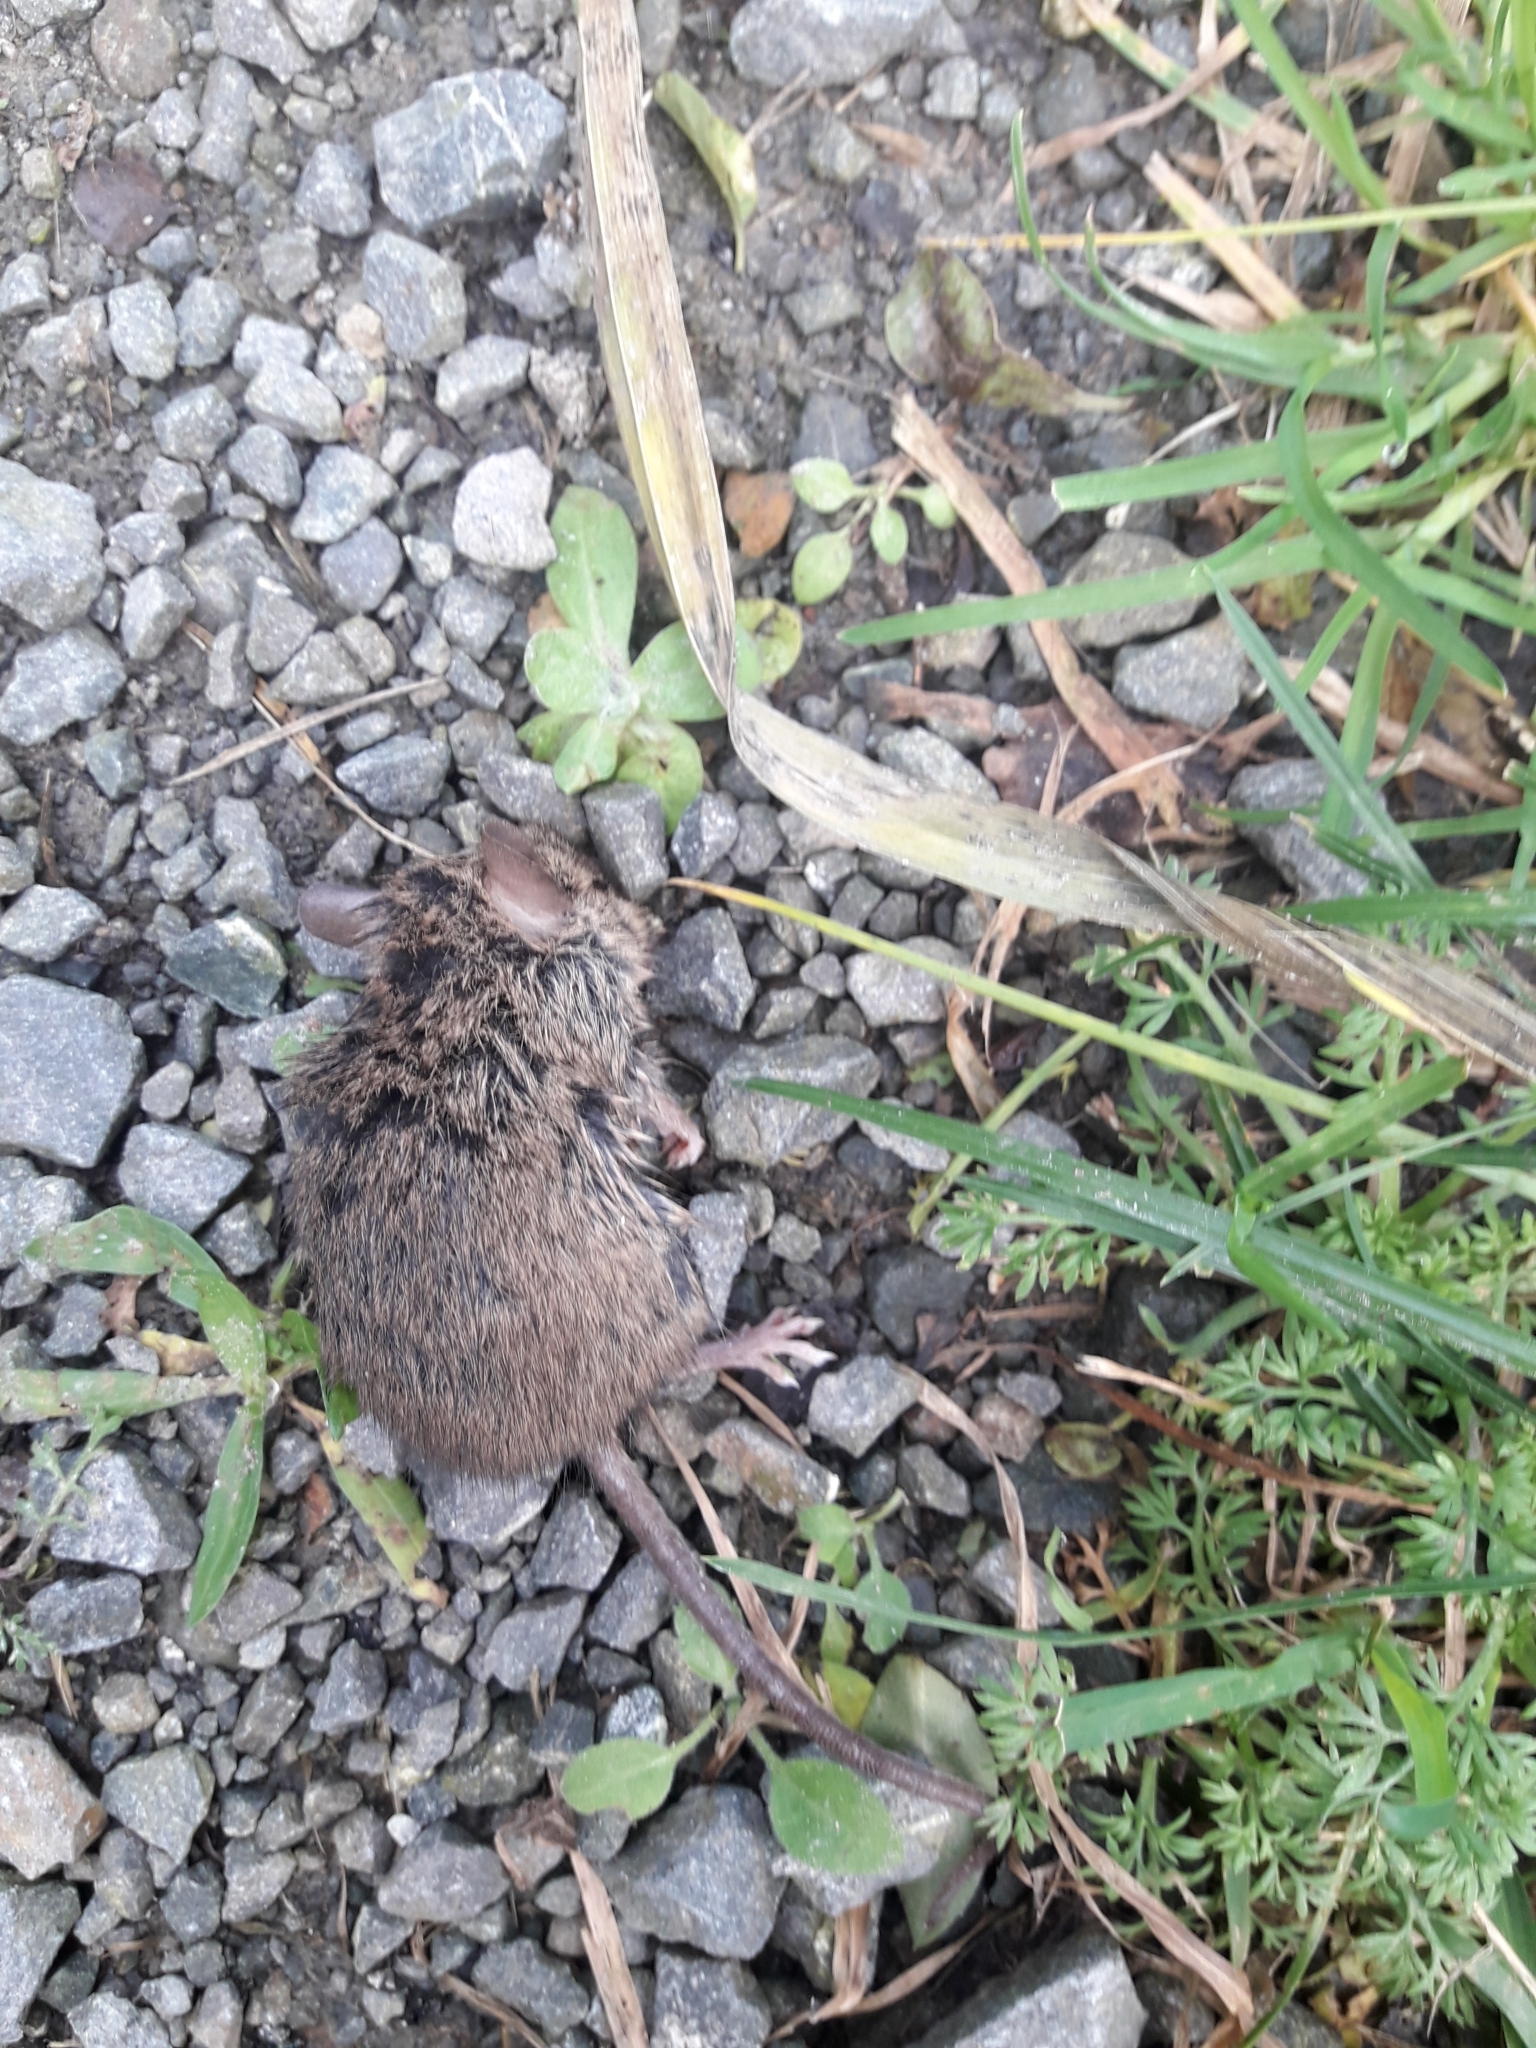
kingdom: Animalia
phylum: Chordata
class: Mammalia
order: Rodentia
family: Muridae
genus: Mus
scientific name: Mus musculus
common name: House mouse
